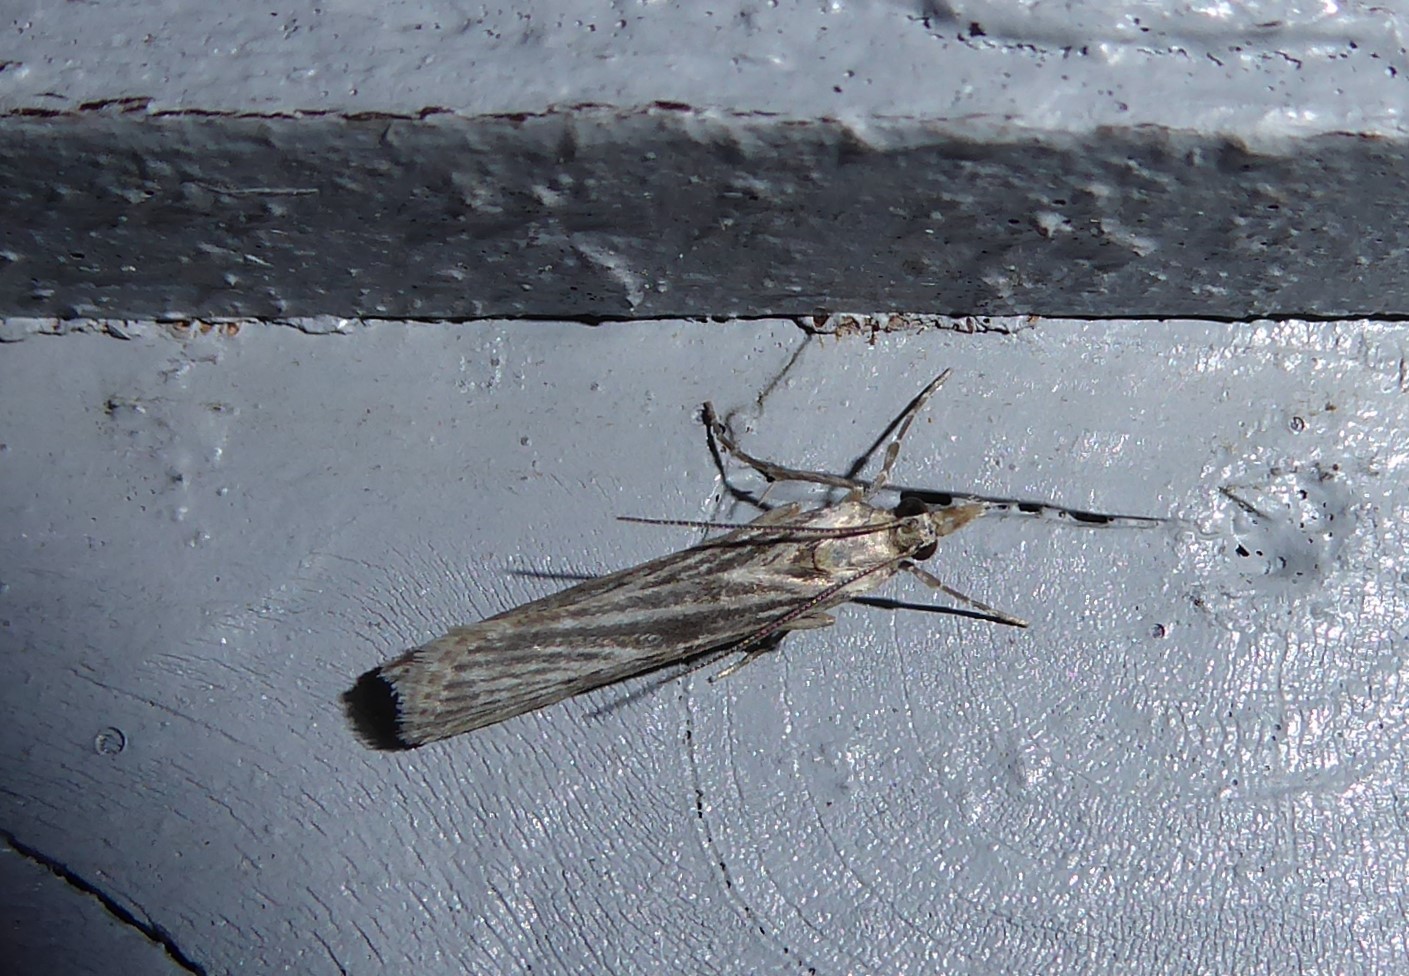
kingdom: Animalia
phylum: Arthropoda
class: Insecta
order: Lepidoptera
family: Crambidae
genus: Eudonia
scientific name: Eudonia atmogramma
